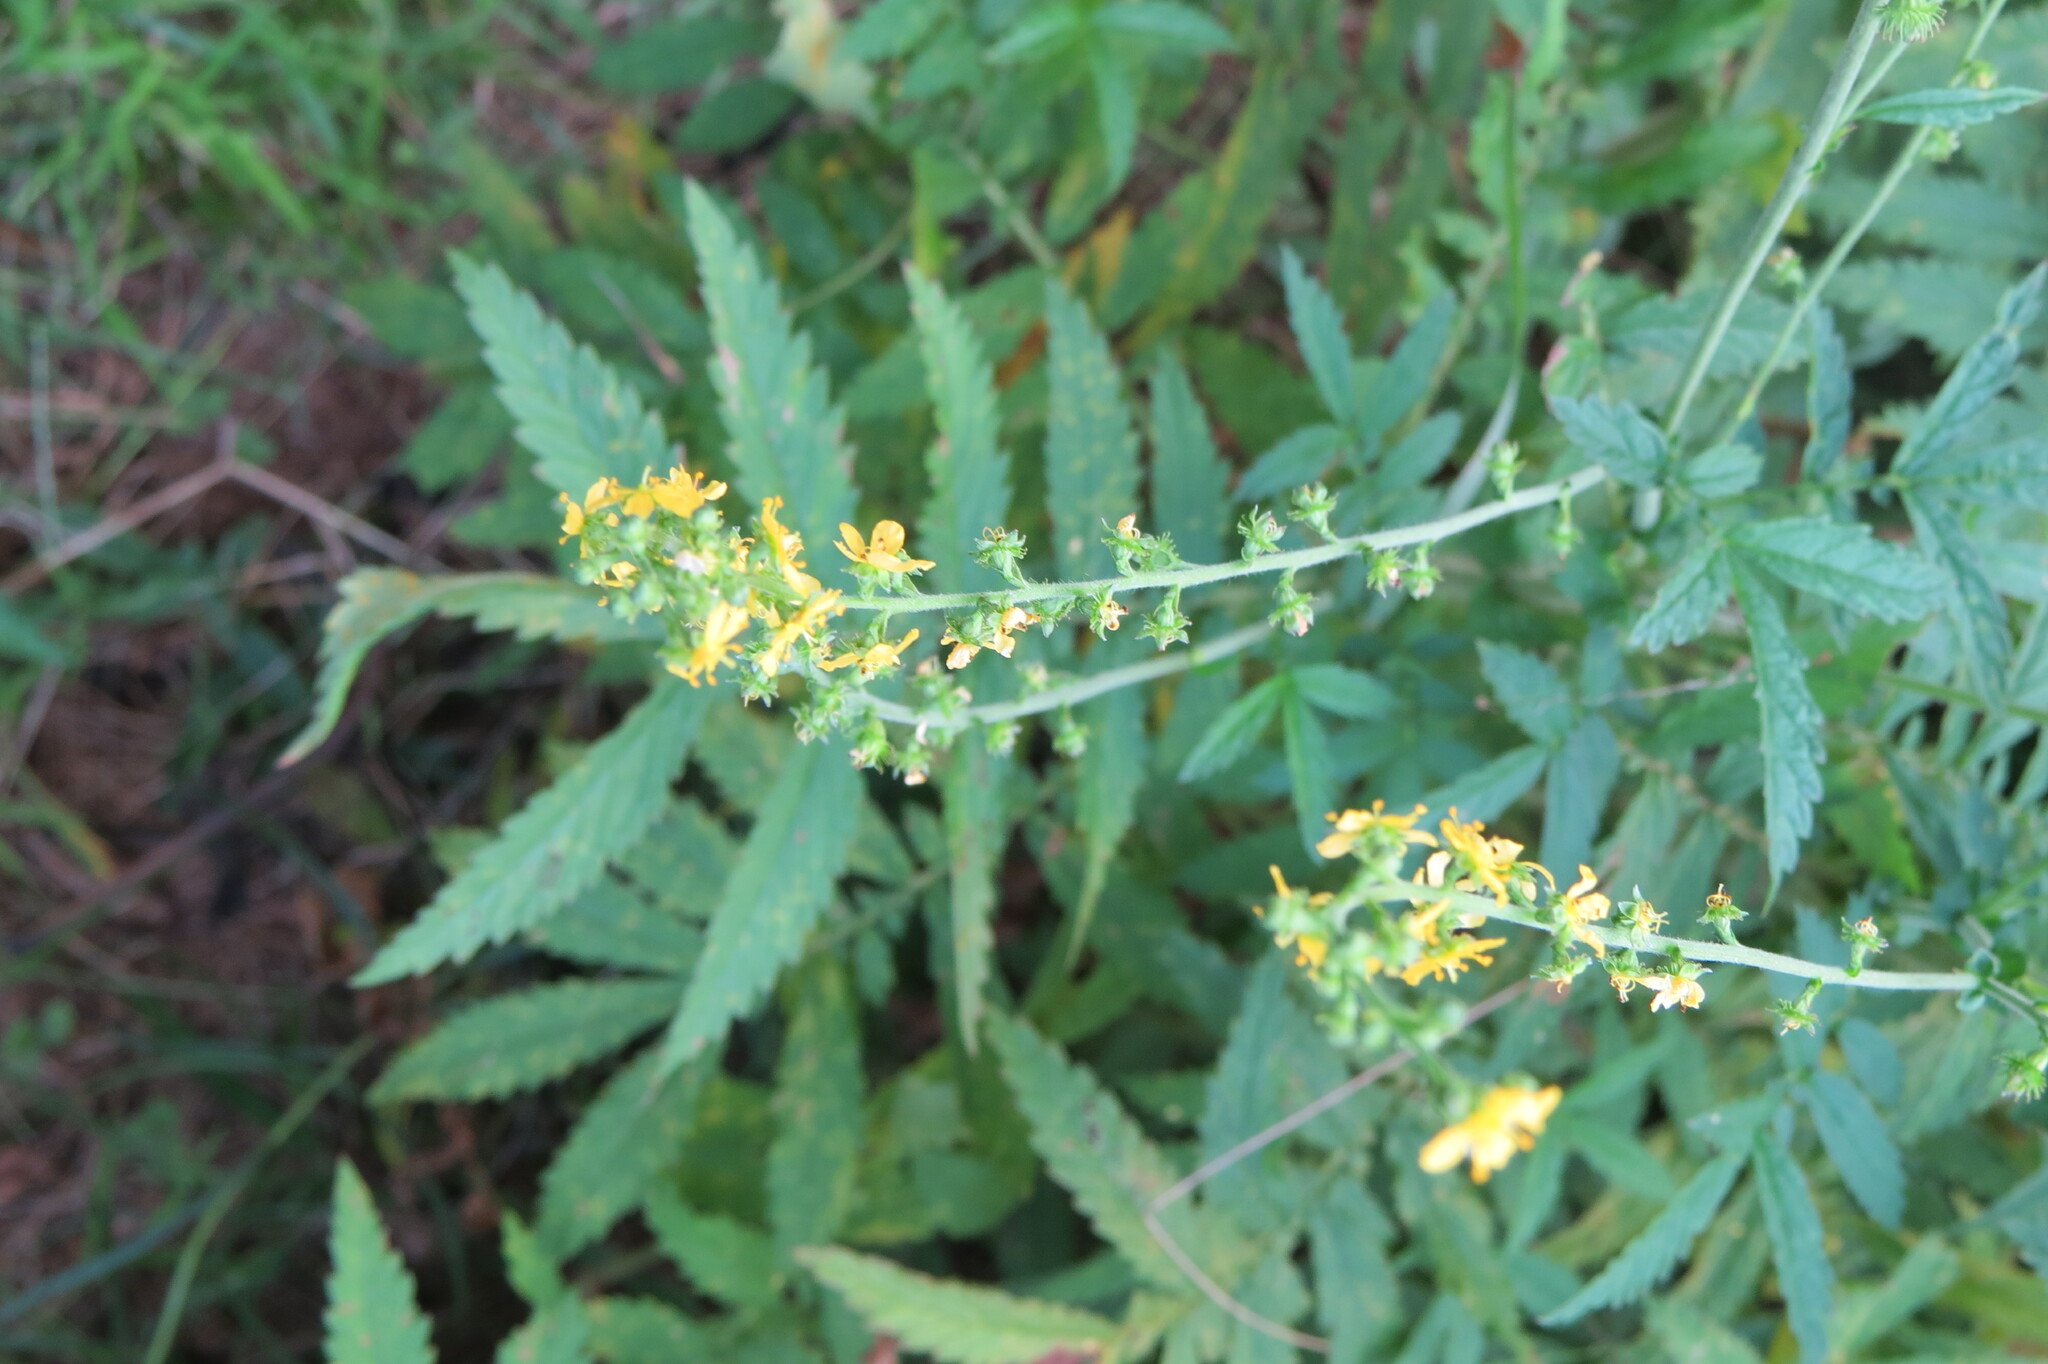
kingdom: Plantae
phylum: Tracheophyta
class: Magnoliopsida
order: Rosales
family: Rosaceae
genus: Agrimonia
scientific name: Agrimonia parviflora
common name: Harvest-lice
